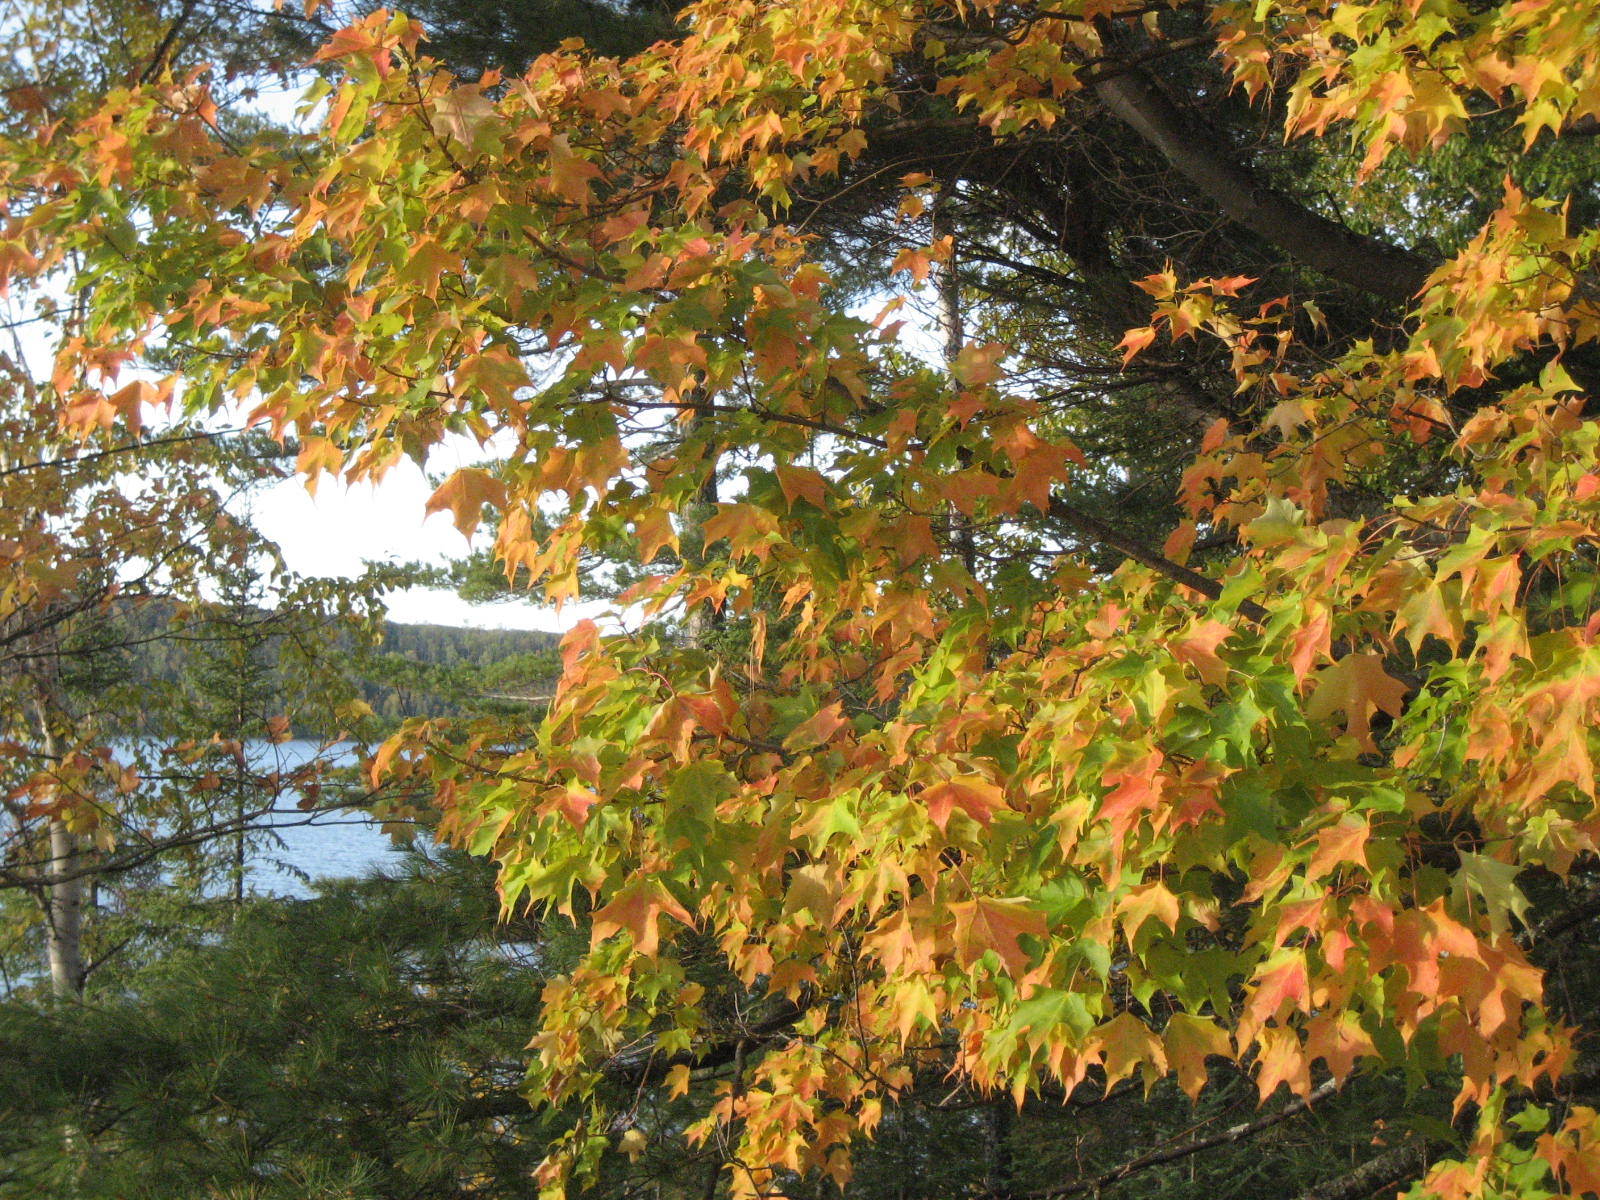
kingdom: Plantae
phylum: Tracheophyta
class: Magnoliopsida
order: Sapindales
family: Sapindaceae
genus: Acer
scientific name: Acer saccharum
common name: Sugar maple
